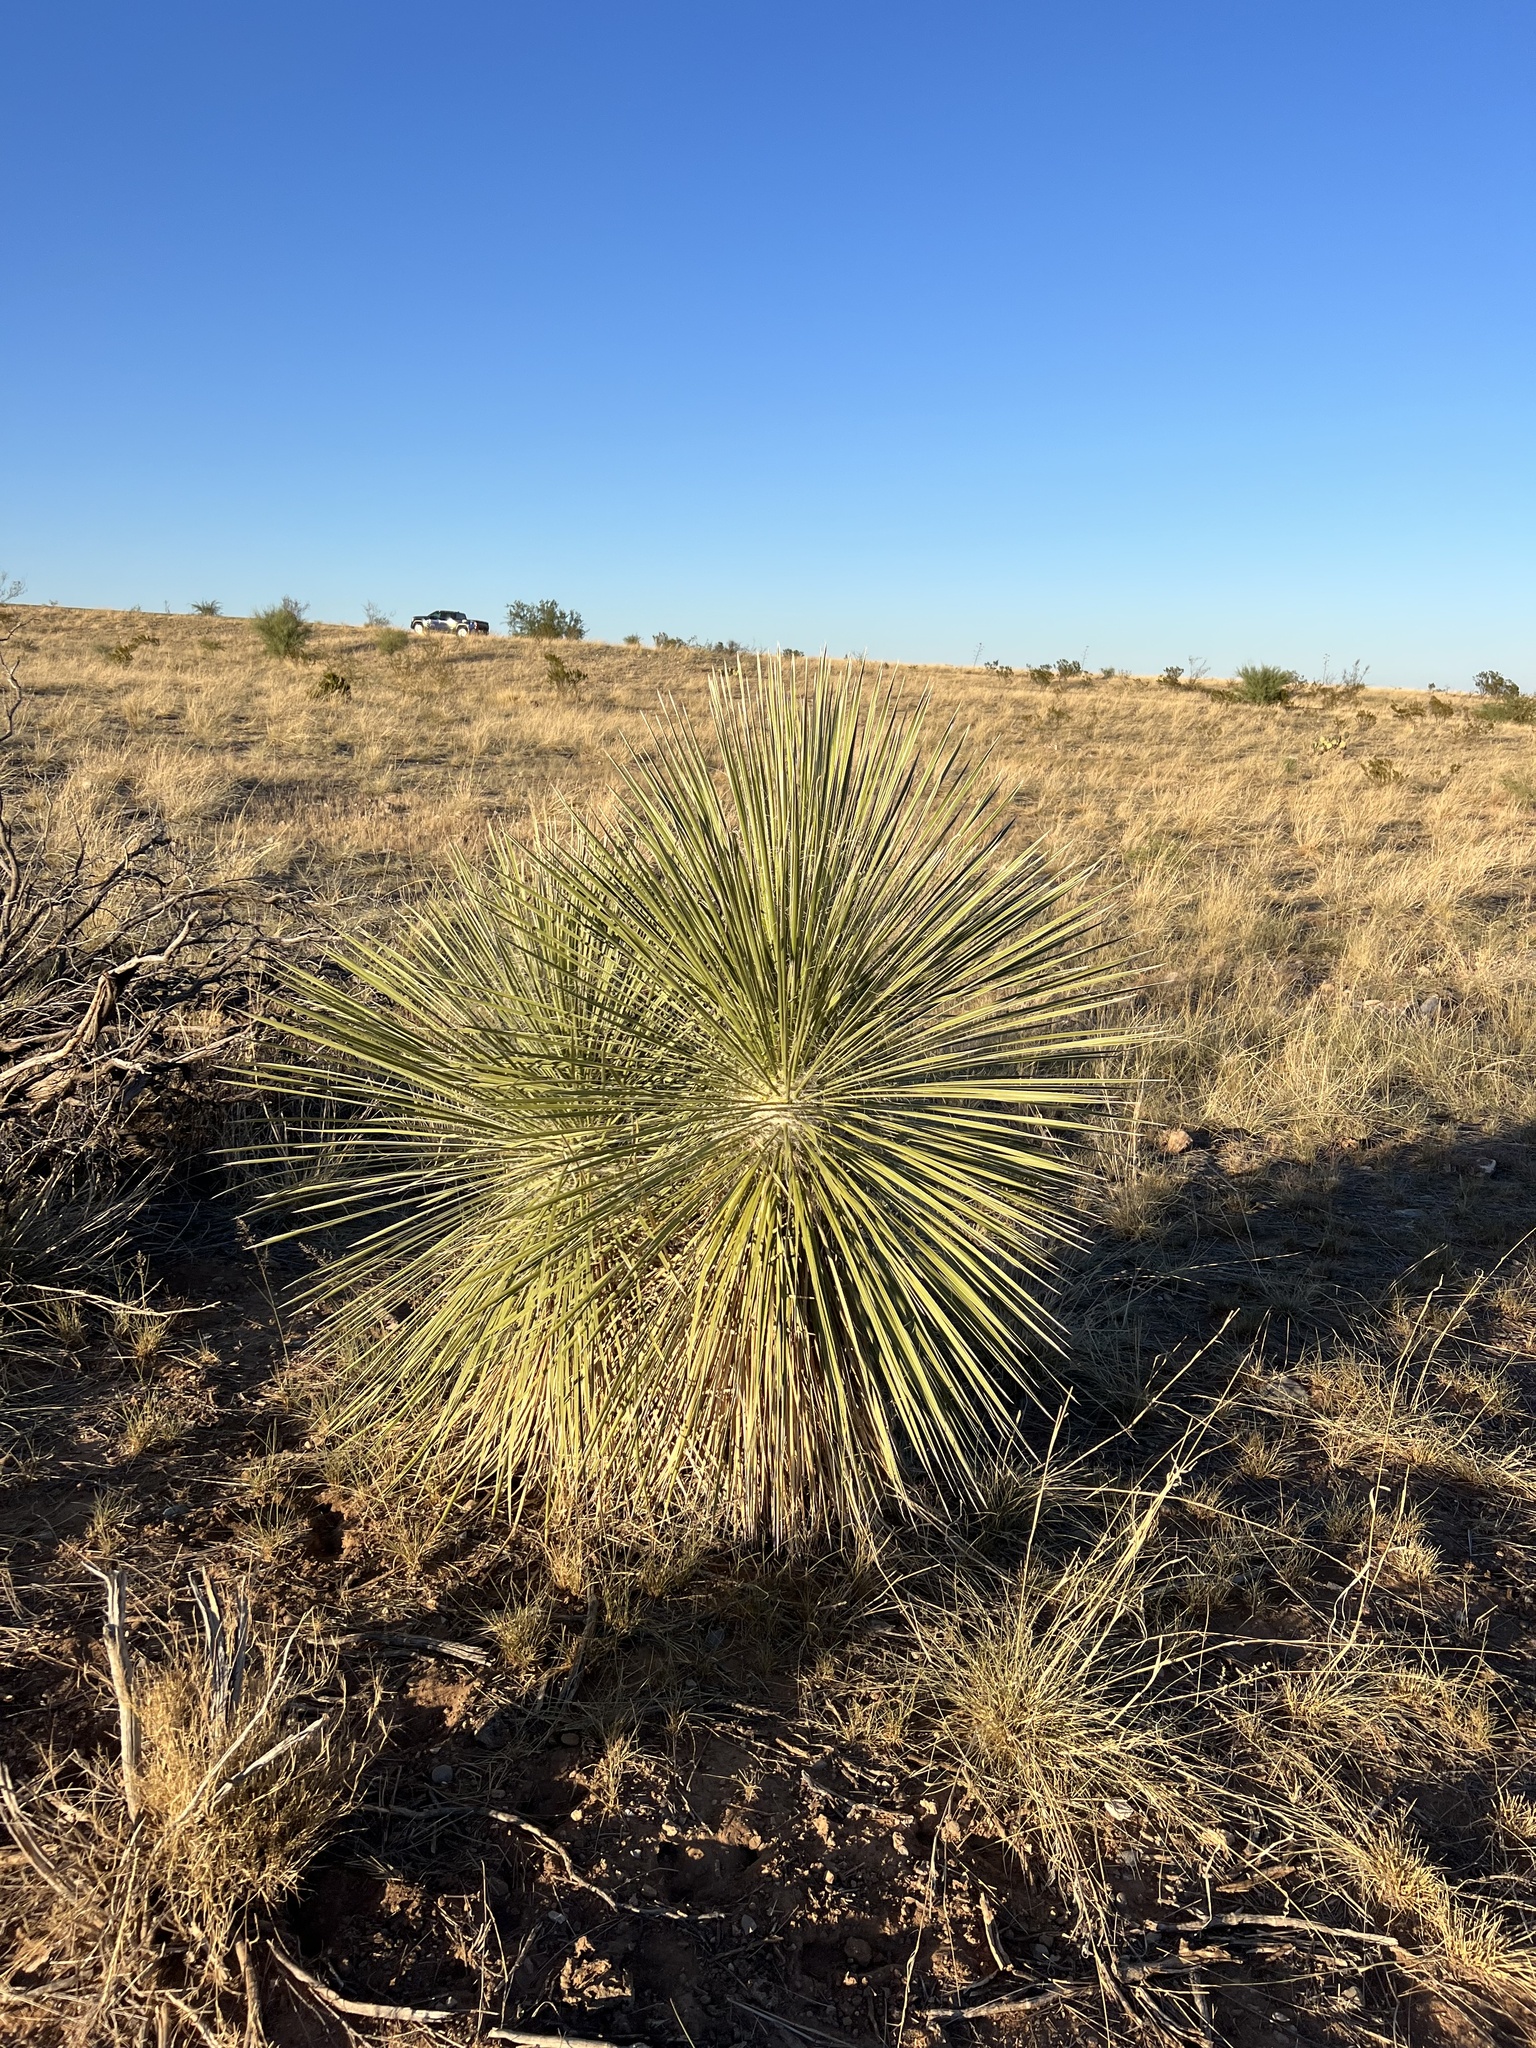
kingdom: Plantae
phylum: Tracheophyta
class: Liliopsida
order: Asparagales
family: Asparagaceae
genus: Yucca
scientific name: Yucca elata
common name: Palmella
